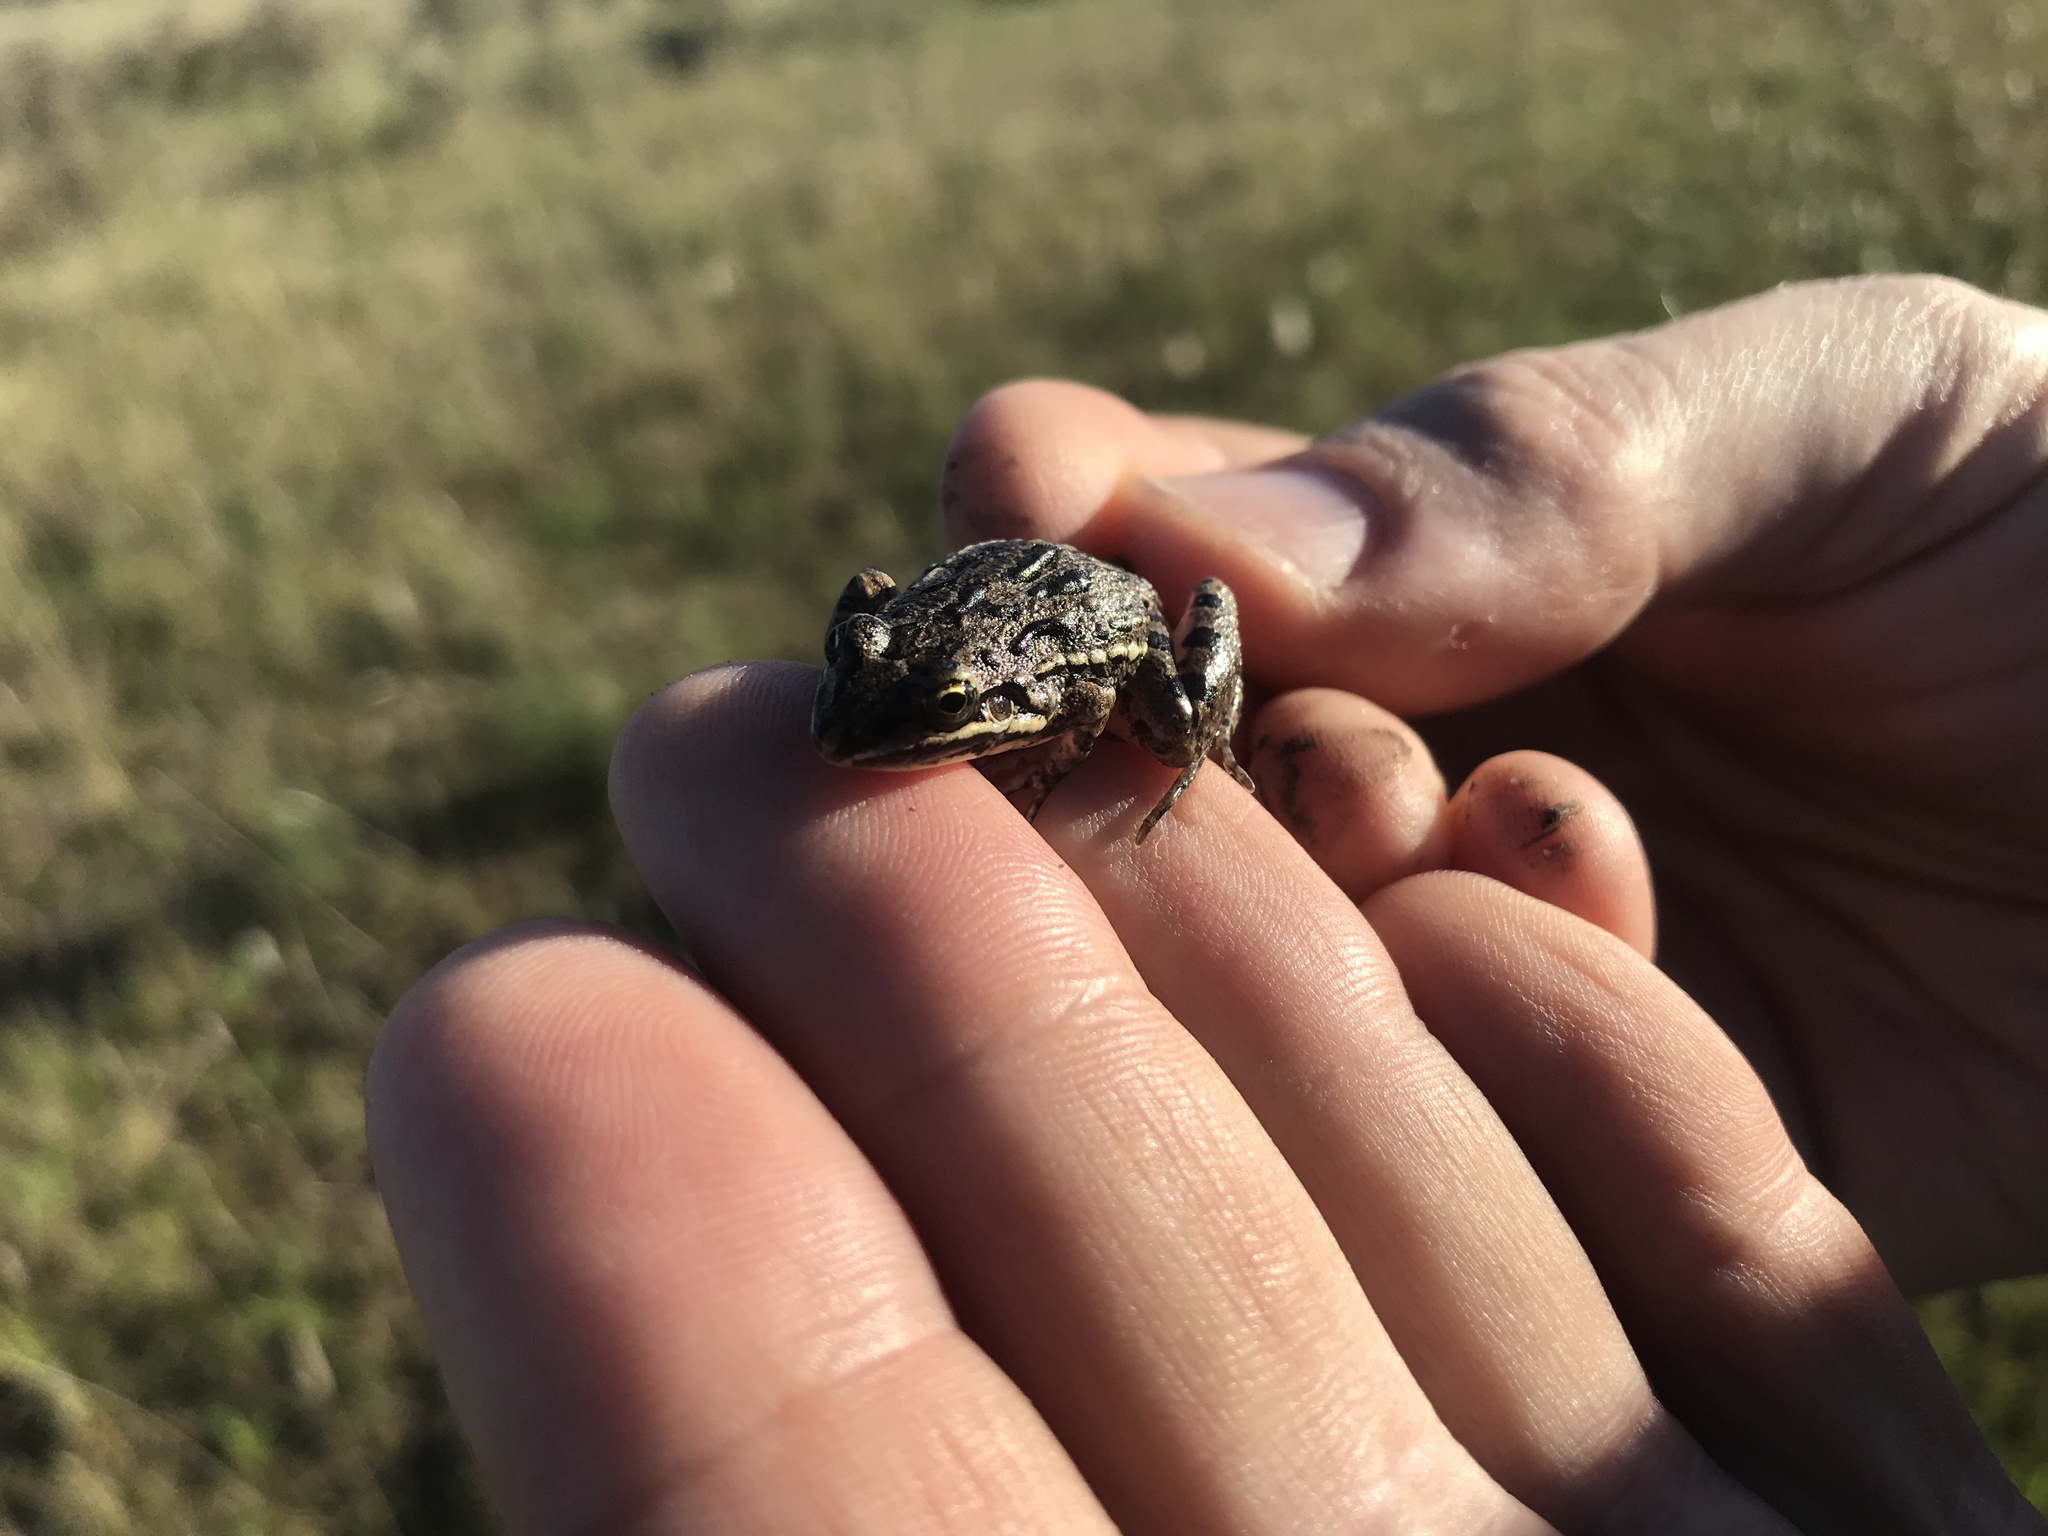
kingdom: Animalia
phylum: Chordata
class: Amphibia
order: Anura
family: Leptodactylidae
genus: Leptodactylus
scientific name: Leptodactylus latinasus
